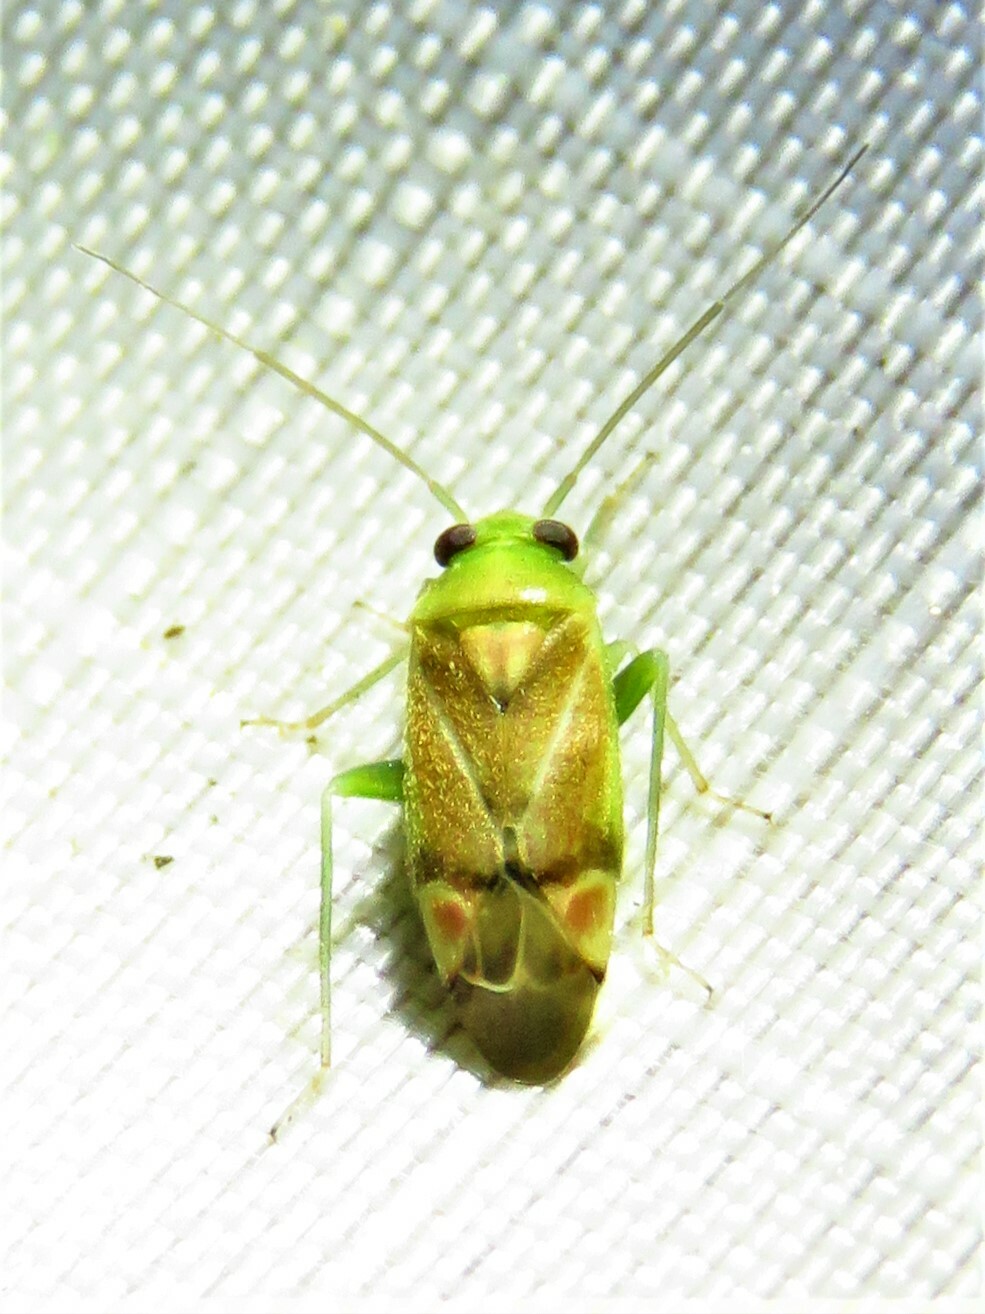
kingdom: Animalia
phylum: Arthropoda
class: Insecta
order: Hemiptera
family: Miridae
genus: Dichrooscytus
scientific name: Dichrooscytus
